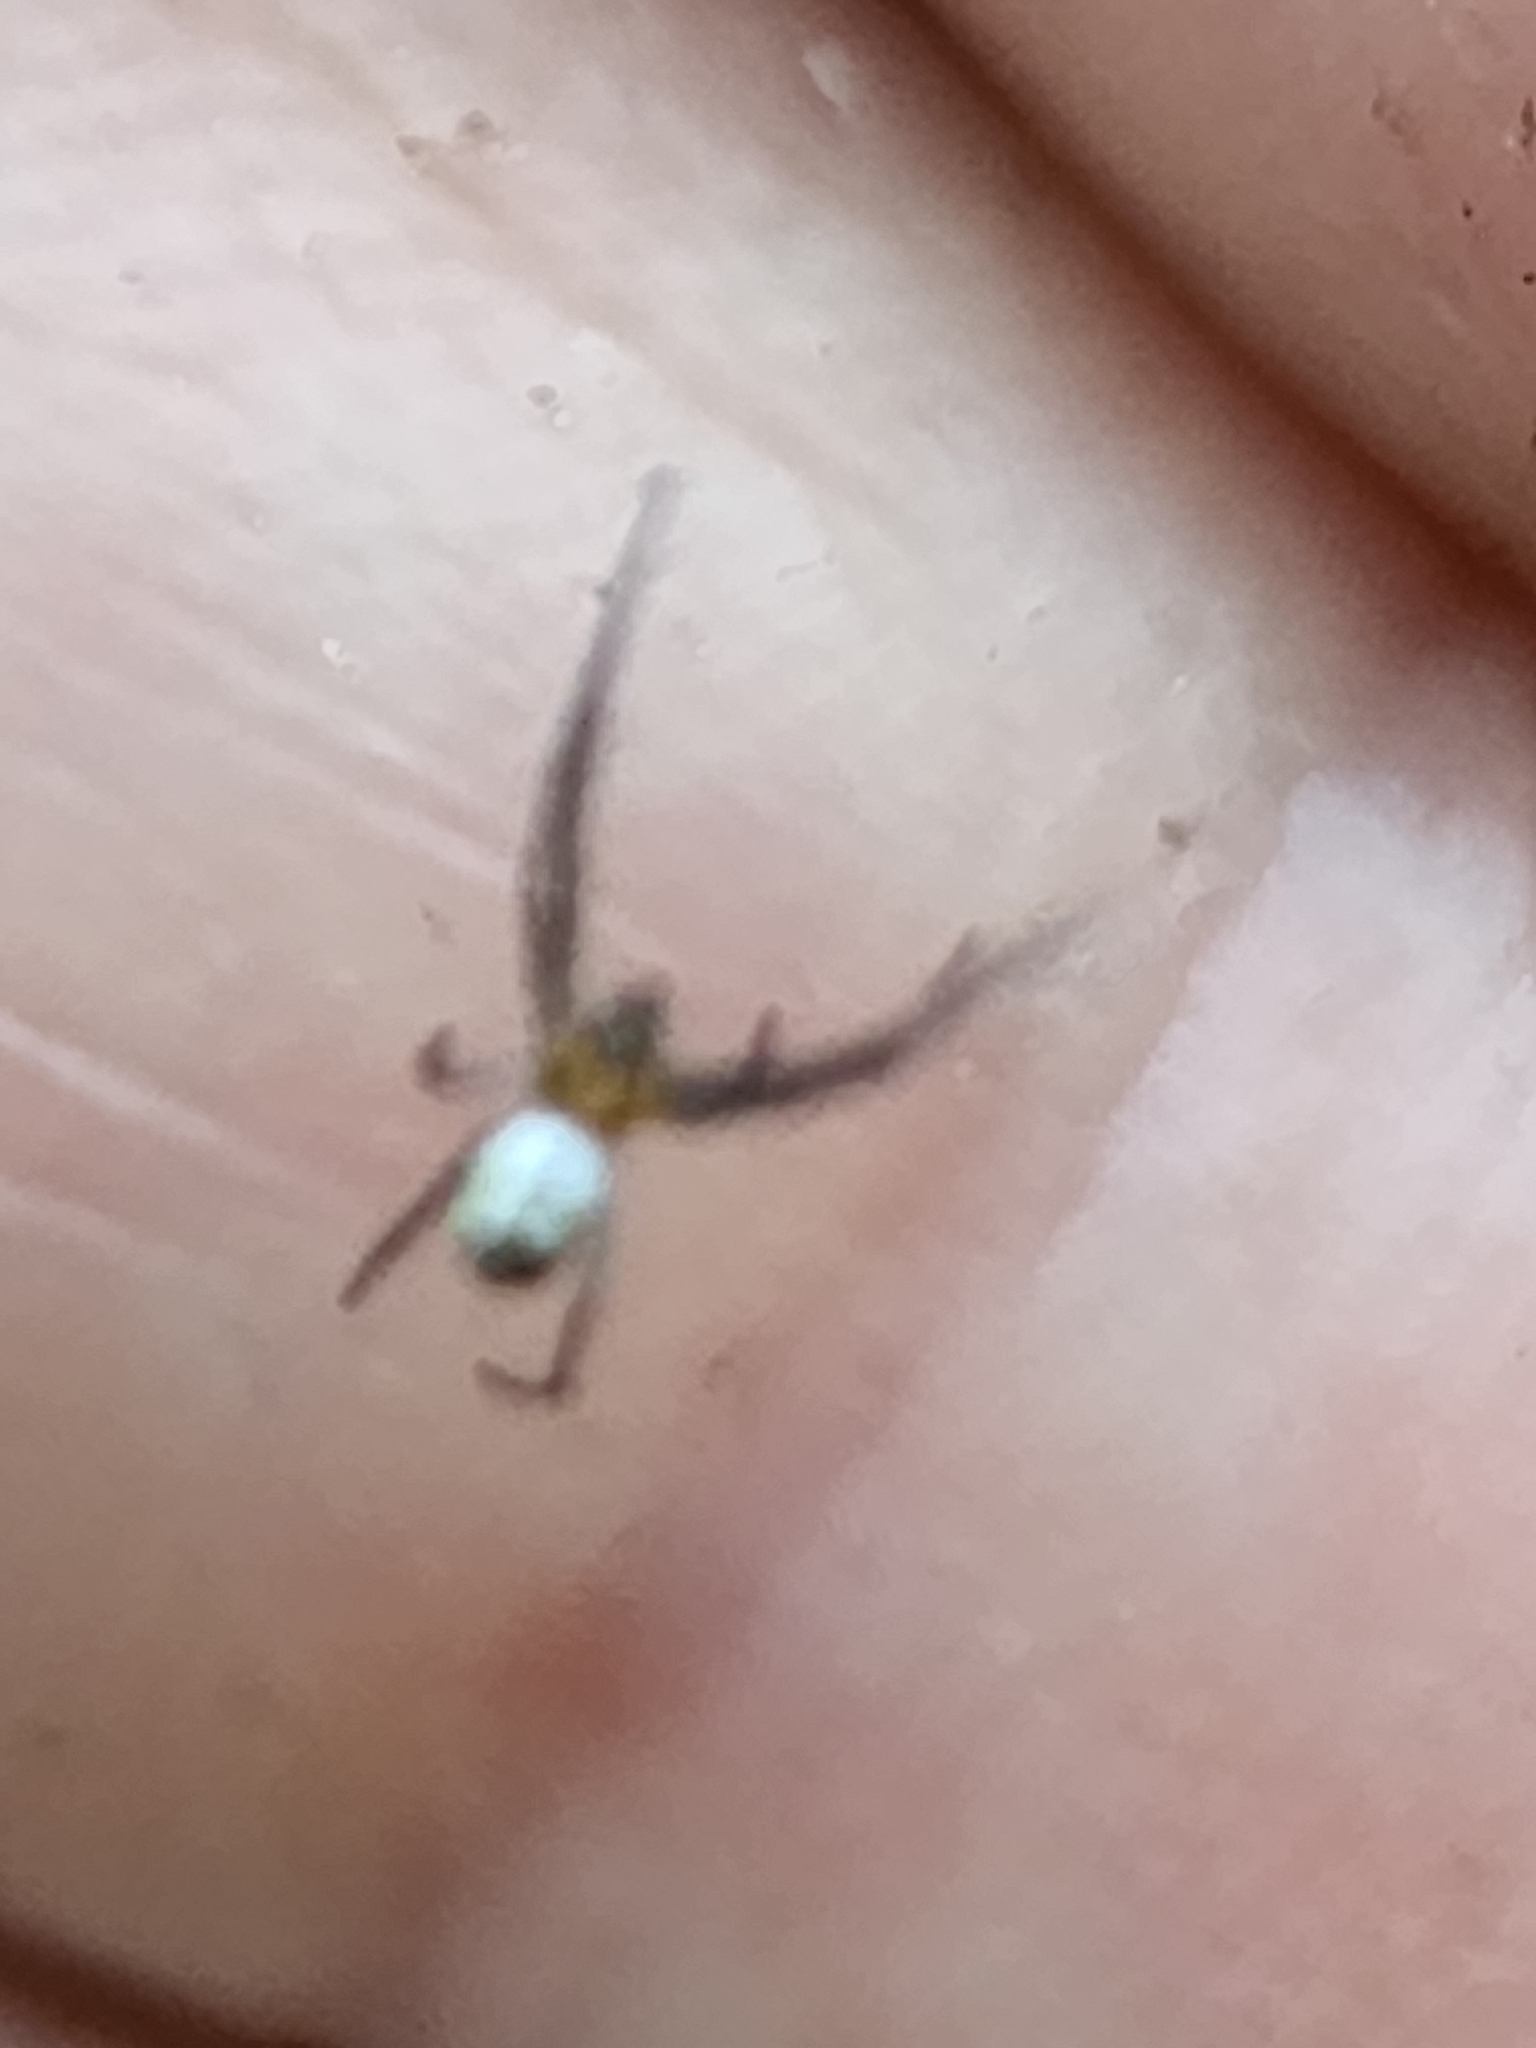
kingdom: Animalia
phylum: Arthropoda
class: Arachnida
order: Araneae
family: Araneidae
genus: Trichonephila
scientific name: Trichonephila clavipes
